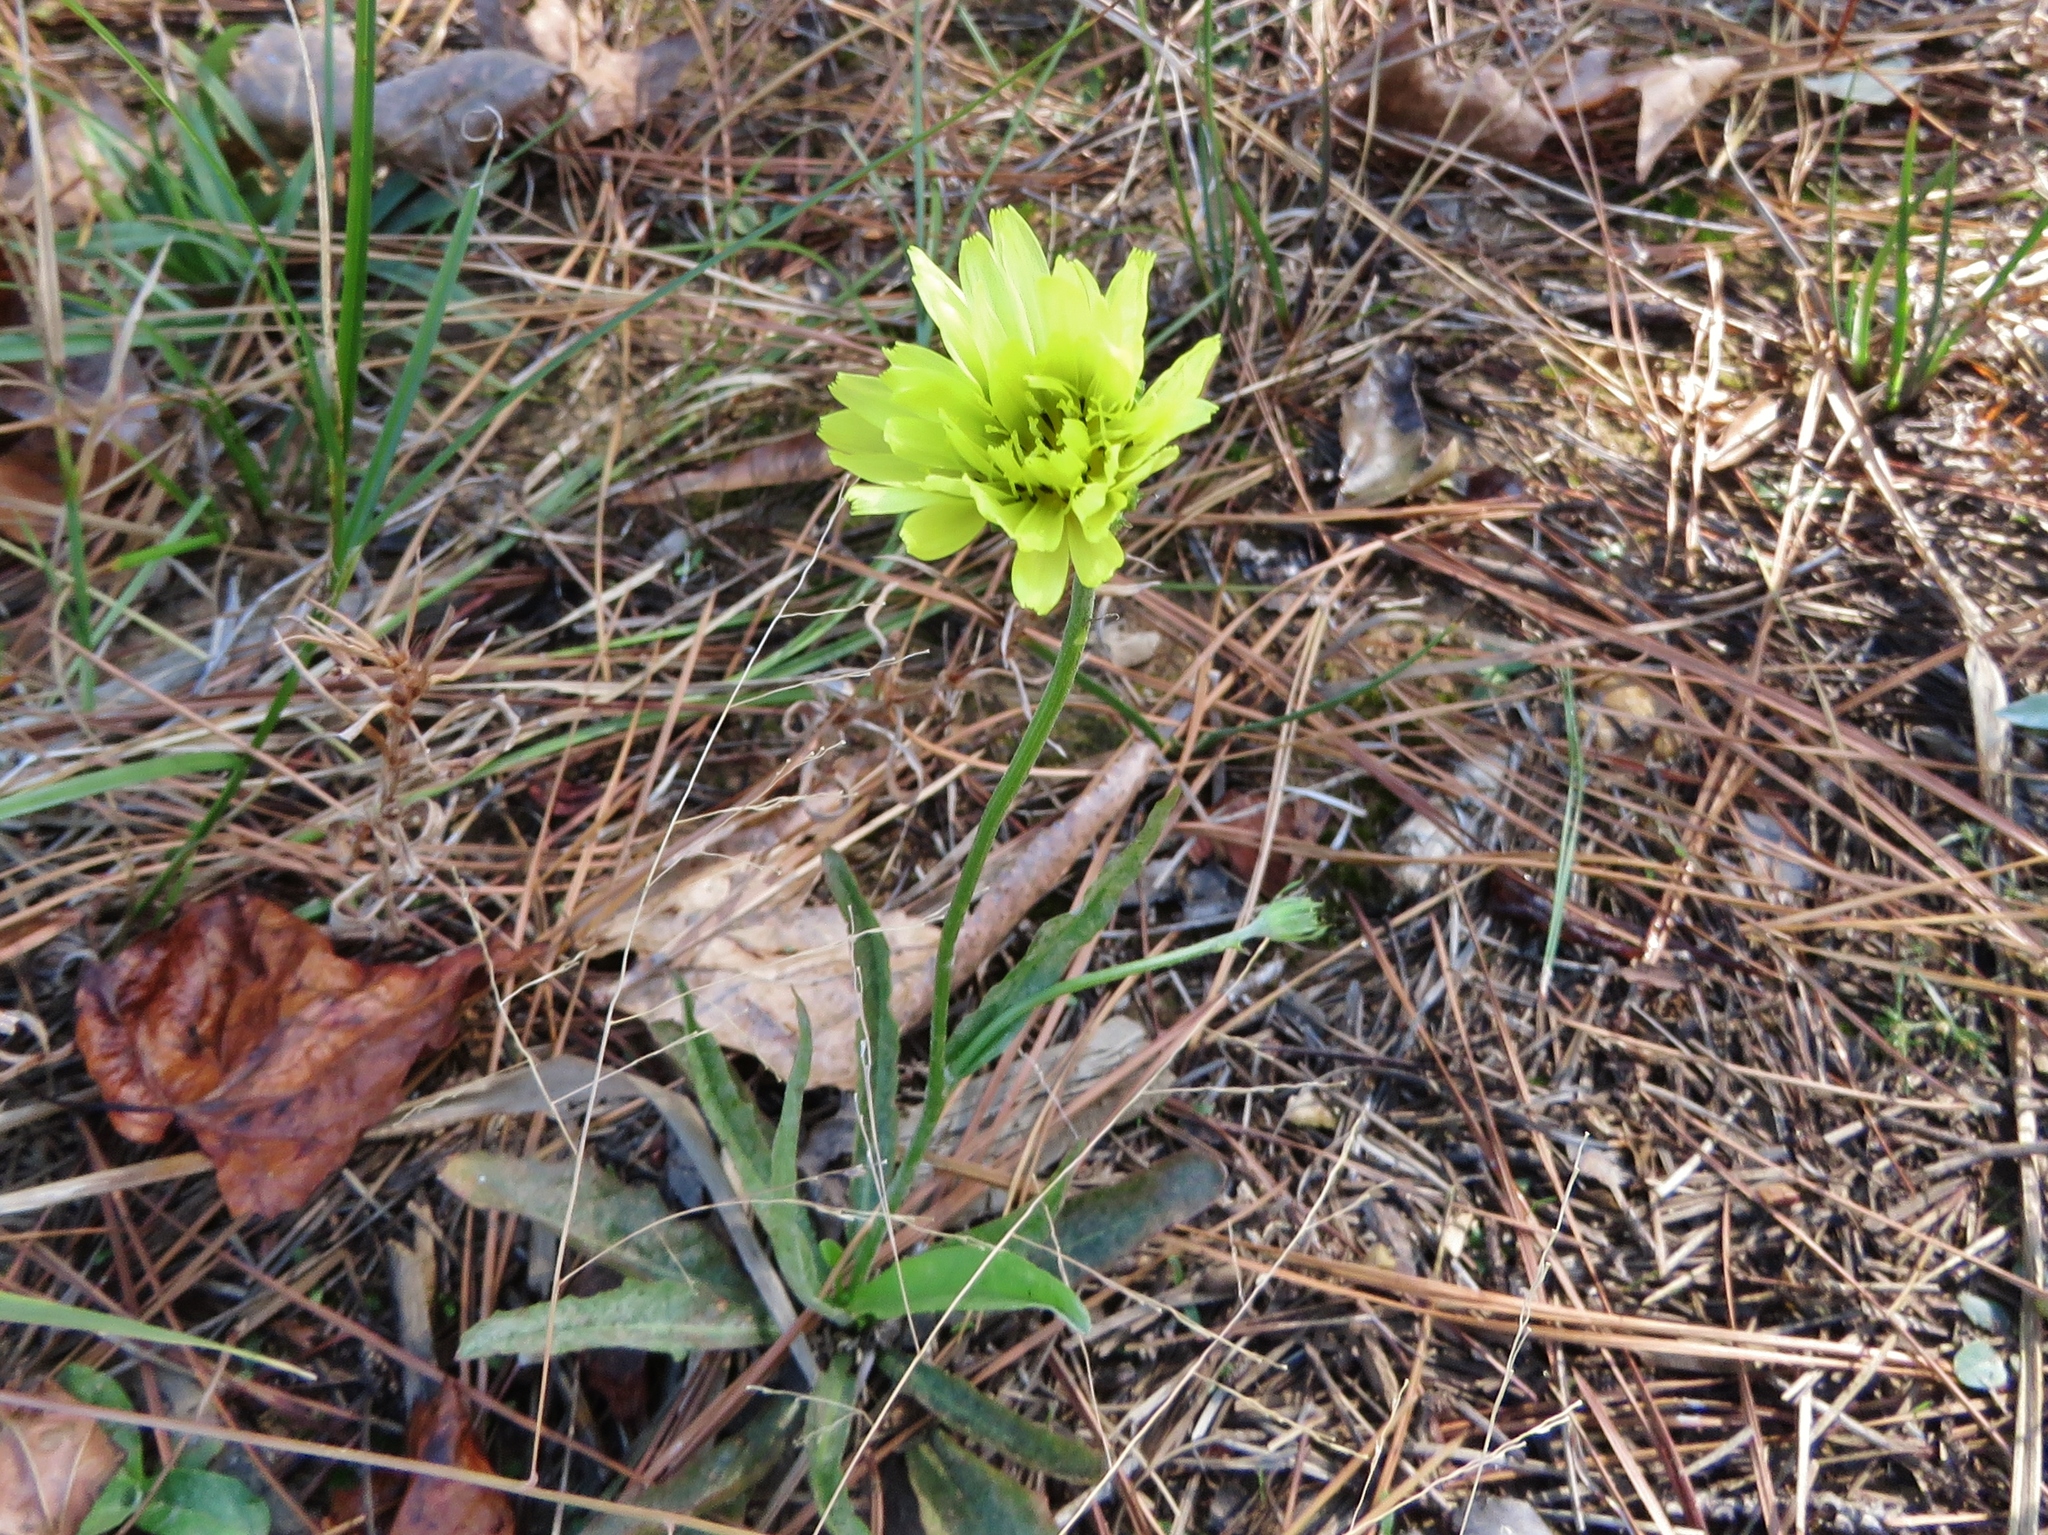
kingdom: Plantae
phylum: Tracheophyta
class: Magnoliopsida
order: Asterales
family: Asteraceae
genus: Pyrrhopappus
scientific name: Pyrrhopappus carolinianus
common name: Carolina desert-chicory
